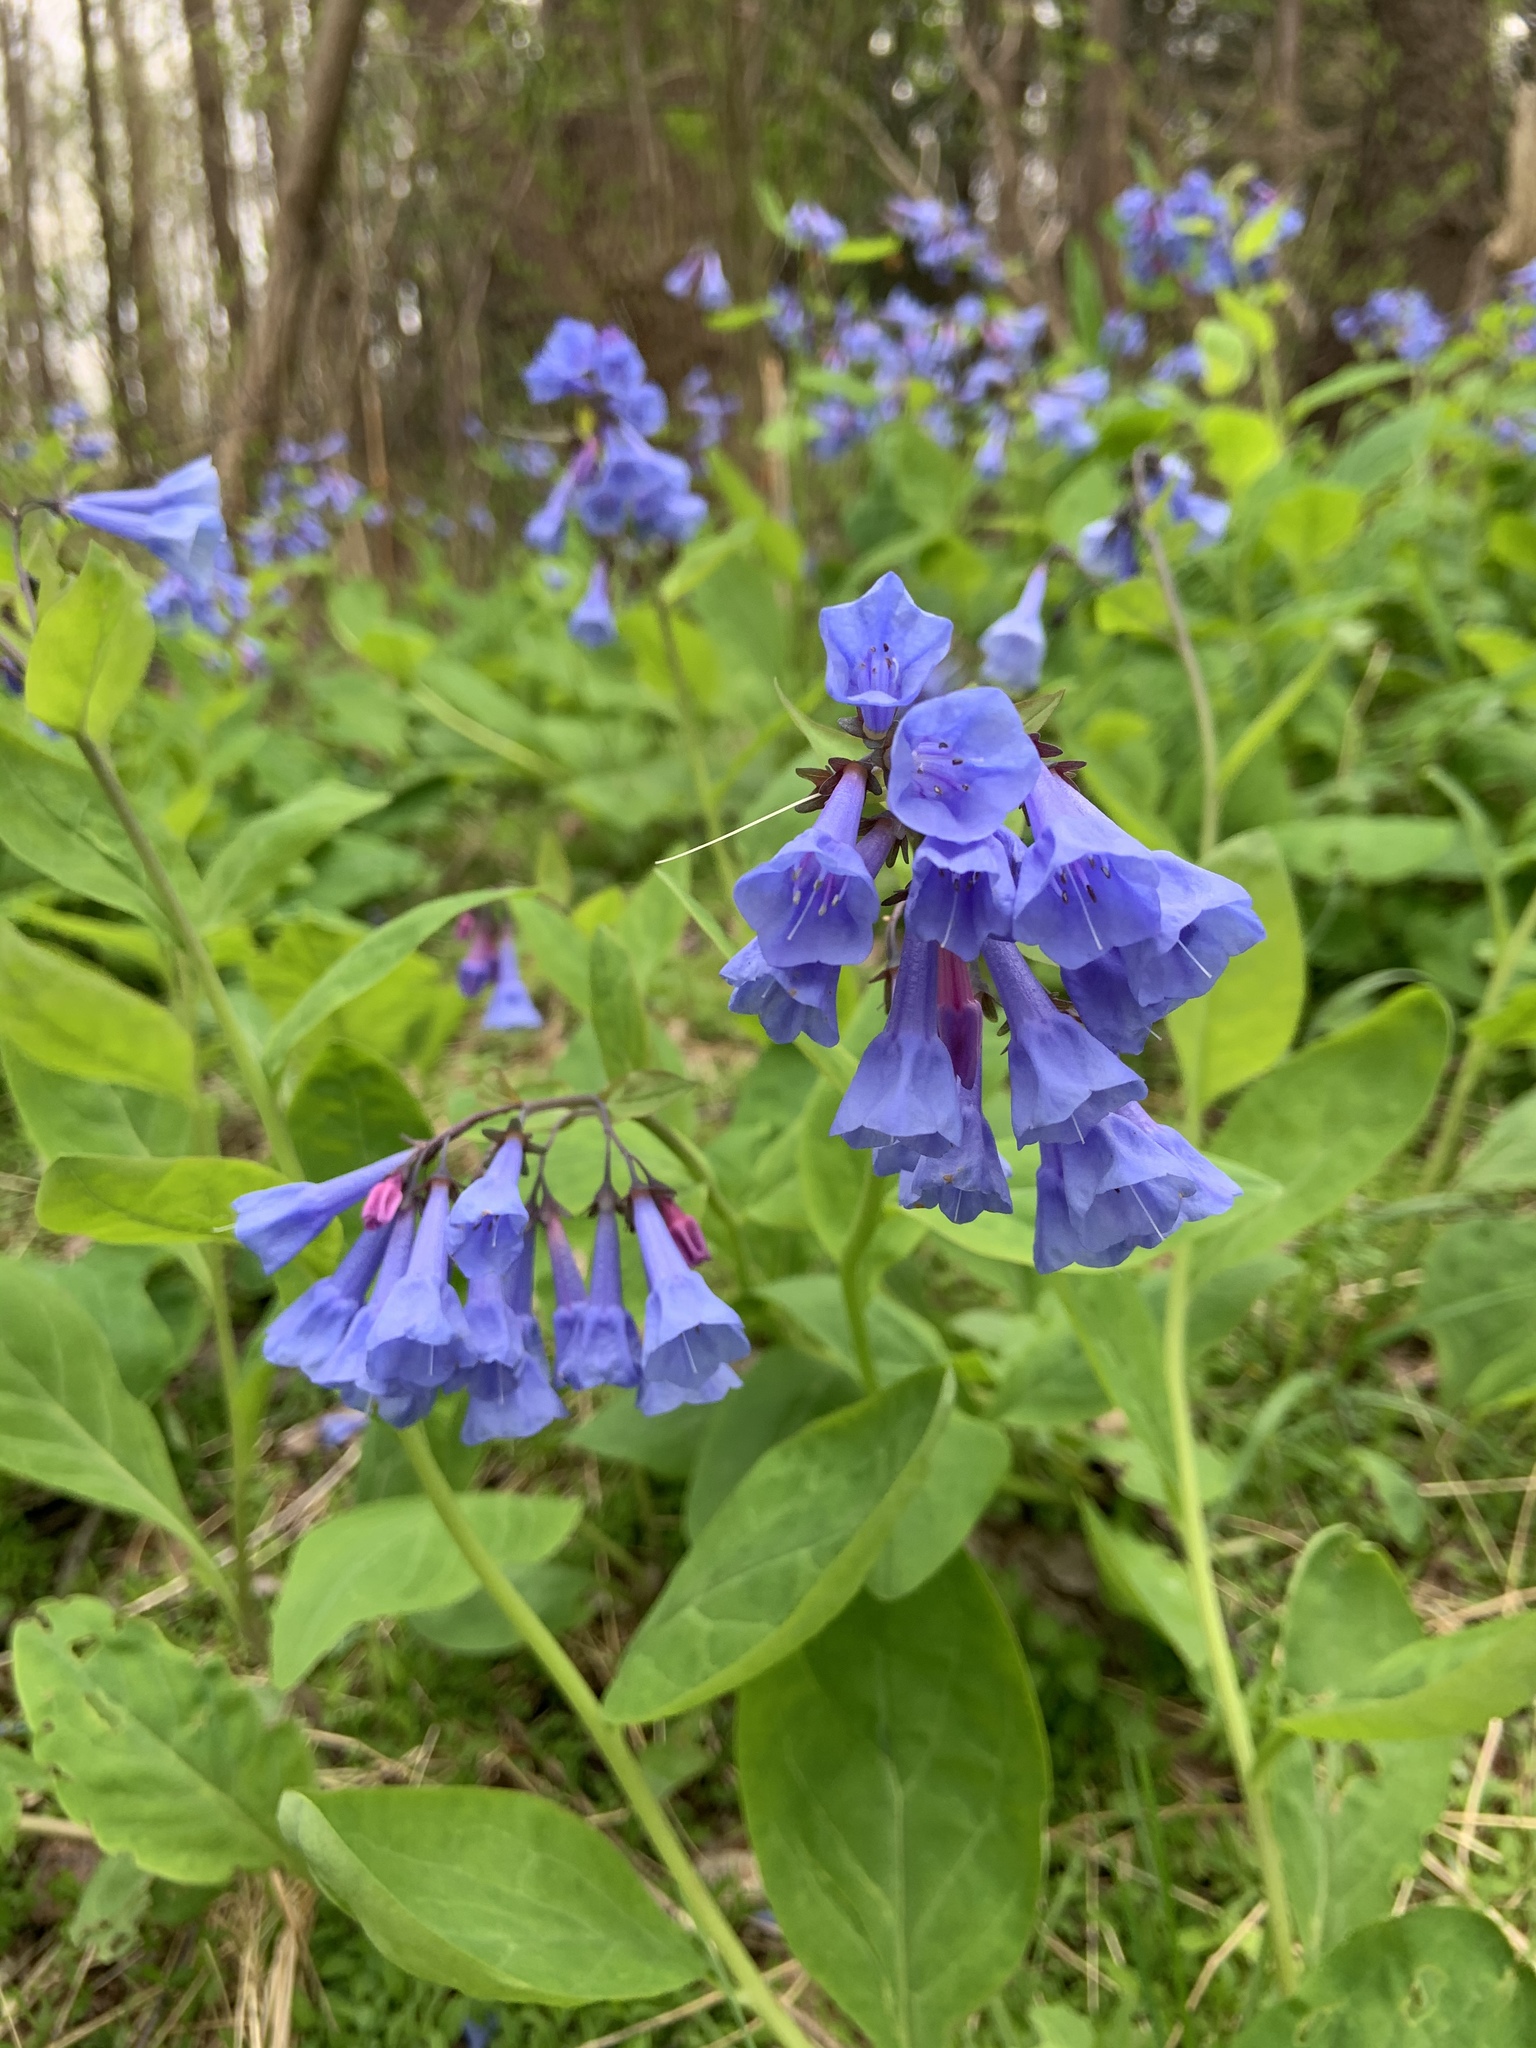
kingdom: Plantae
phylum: Tracheophyta
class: Magnoliopsida
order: Boraginales
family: Boraginaceae
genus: Mertensia
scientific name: Mertensia virginica
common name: Virginia bluebells
